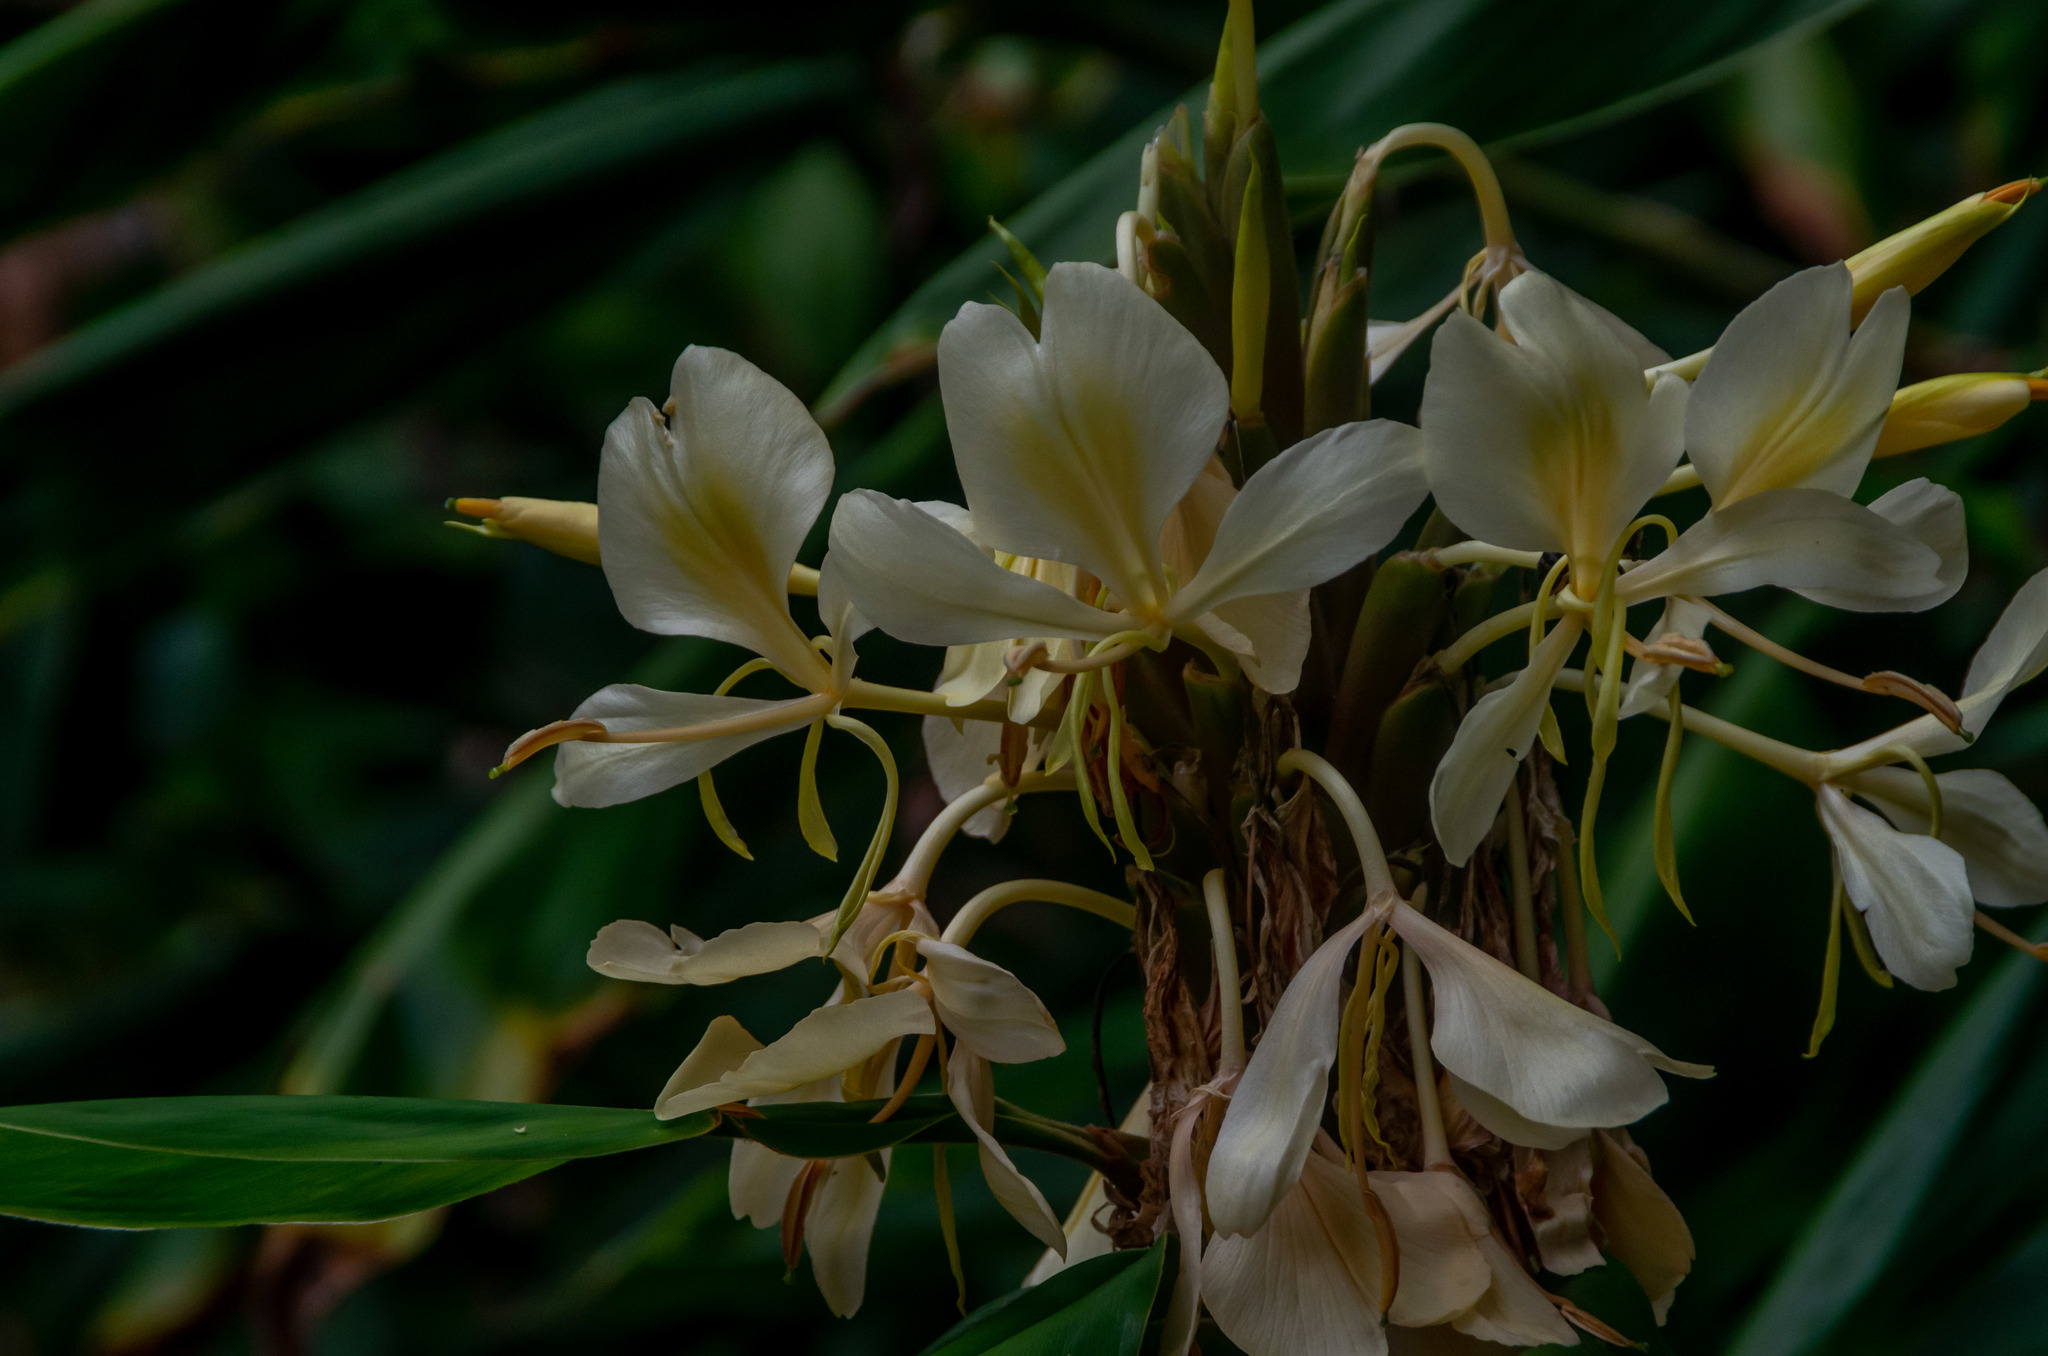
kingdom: Plantae
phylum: Tracheophyta
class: Liliopsida
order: Zingiberales
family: Zingiberaceae
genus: Hedychium
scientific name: Hedychium flavescens
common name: Yellow ginger
